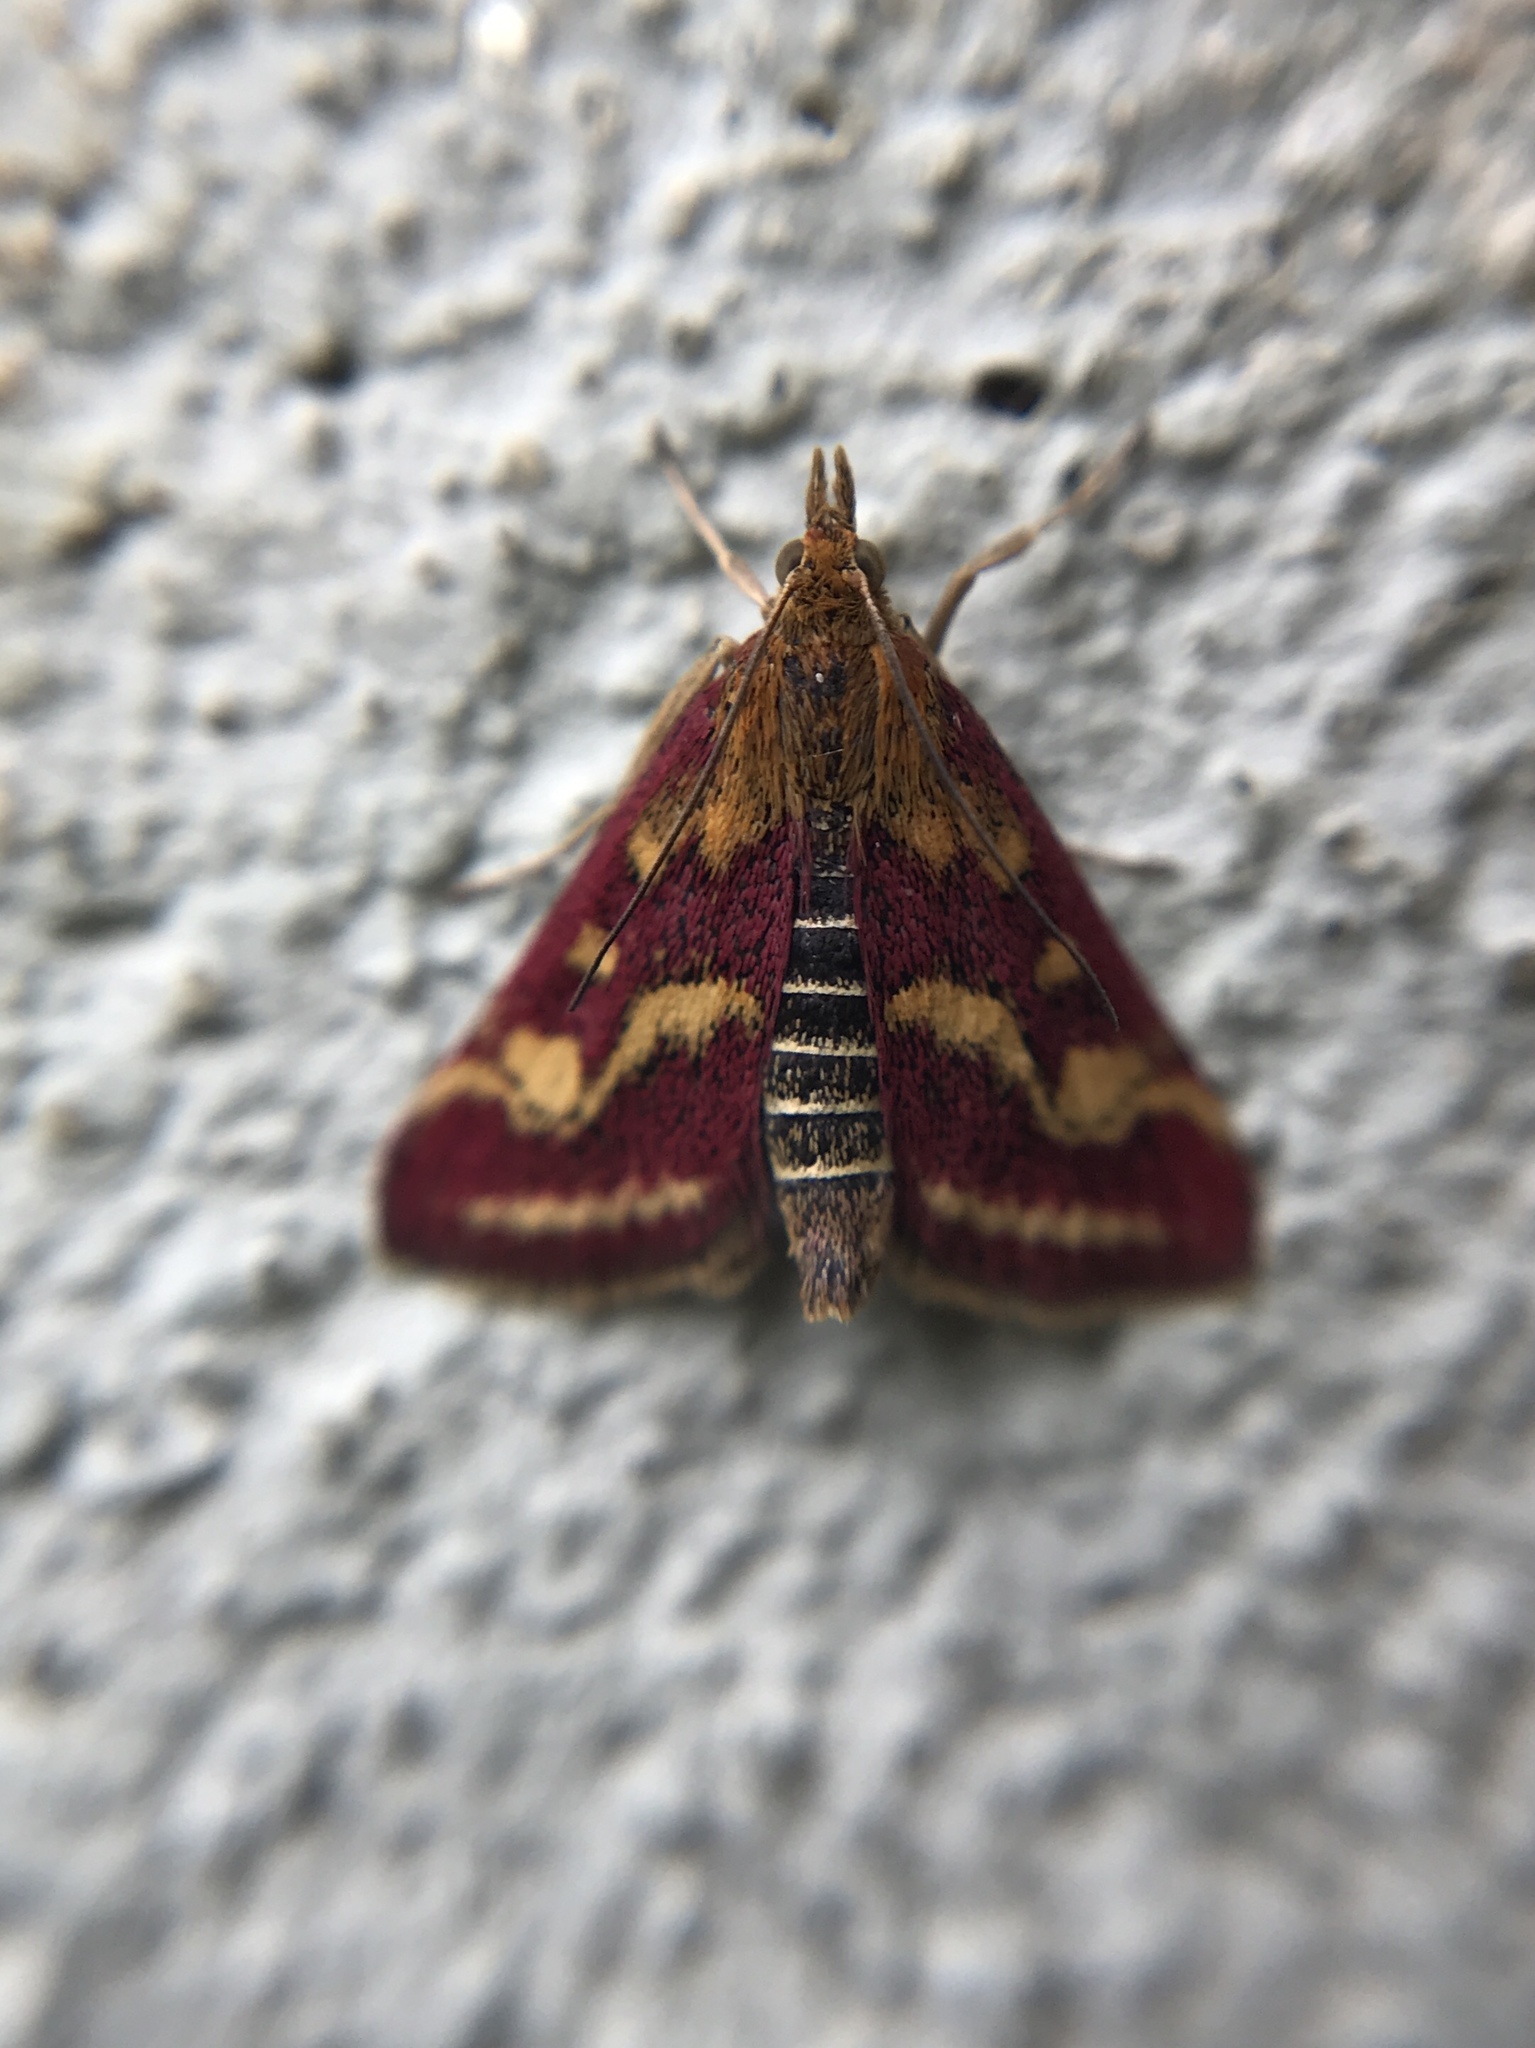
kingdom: Animalia
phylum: Arthropoda
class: Insecta
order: Lepidoptera
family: Crambidae
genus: Pyrausta
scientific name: Pyrausta ostrinalis
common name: Scarce purple & gold
